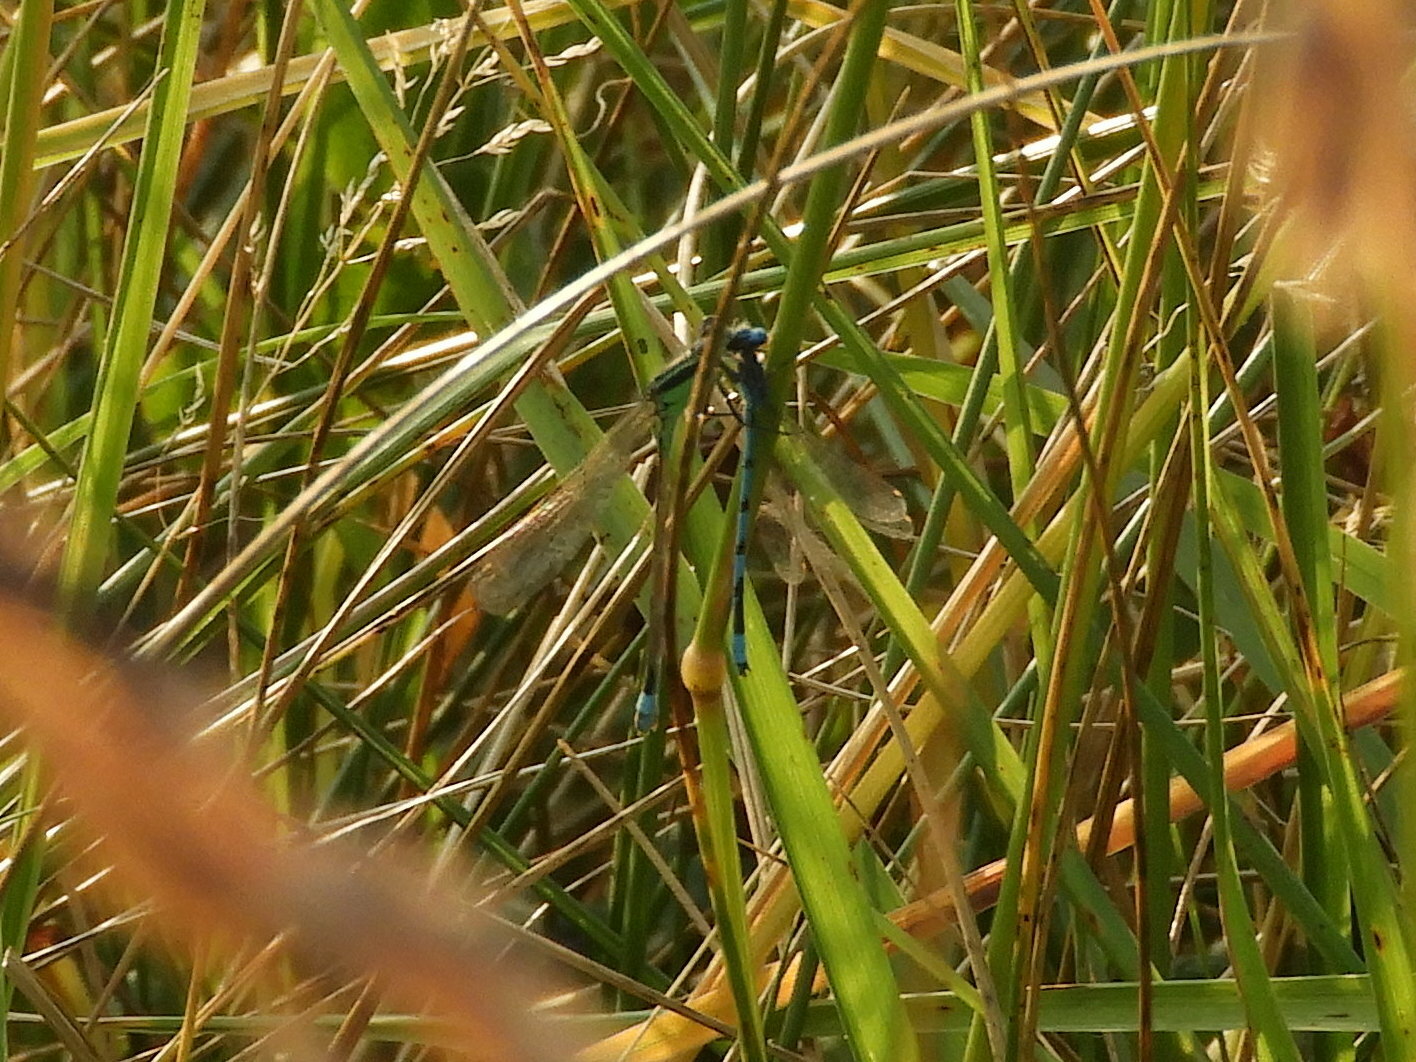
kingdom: Animalia
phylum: Arthropoda
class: Insecta
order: Odonata
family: Coenagrionidae
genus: Ischnura
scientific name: Ischnura ramburii
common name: Rambur's forktail
